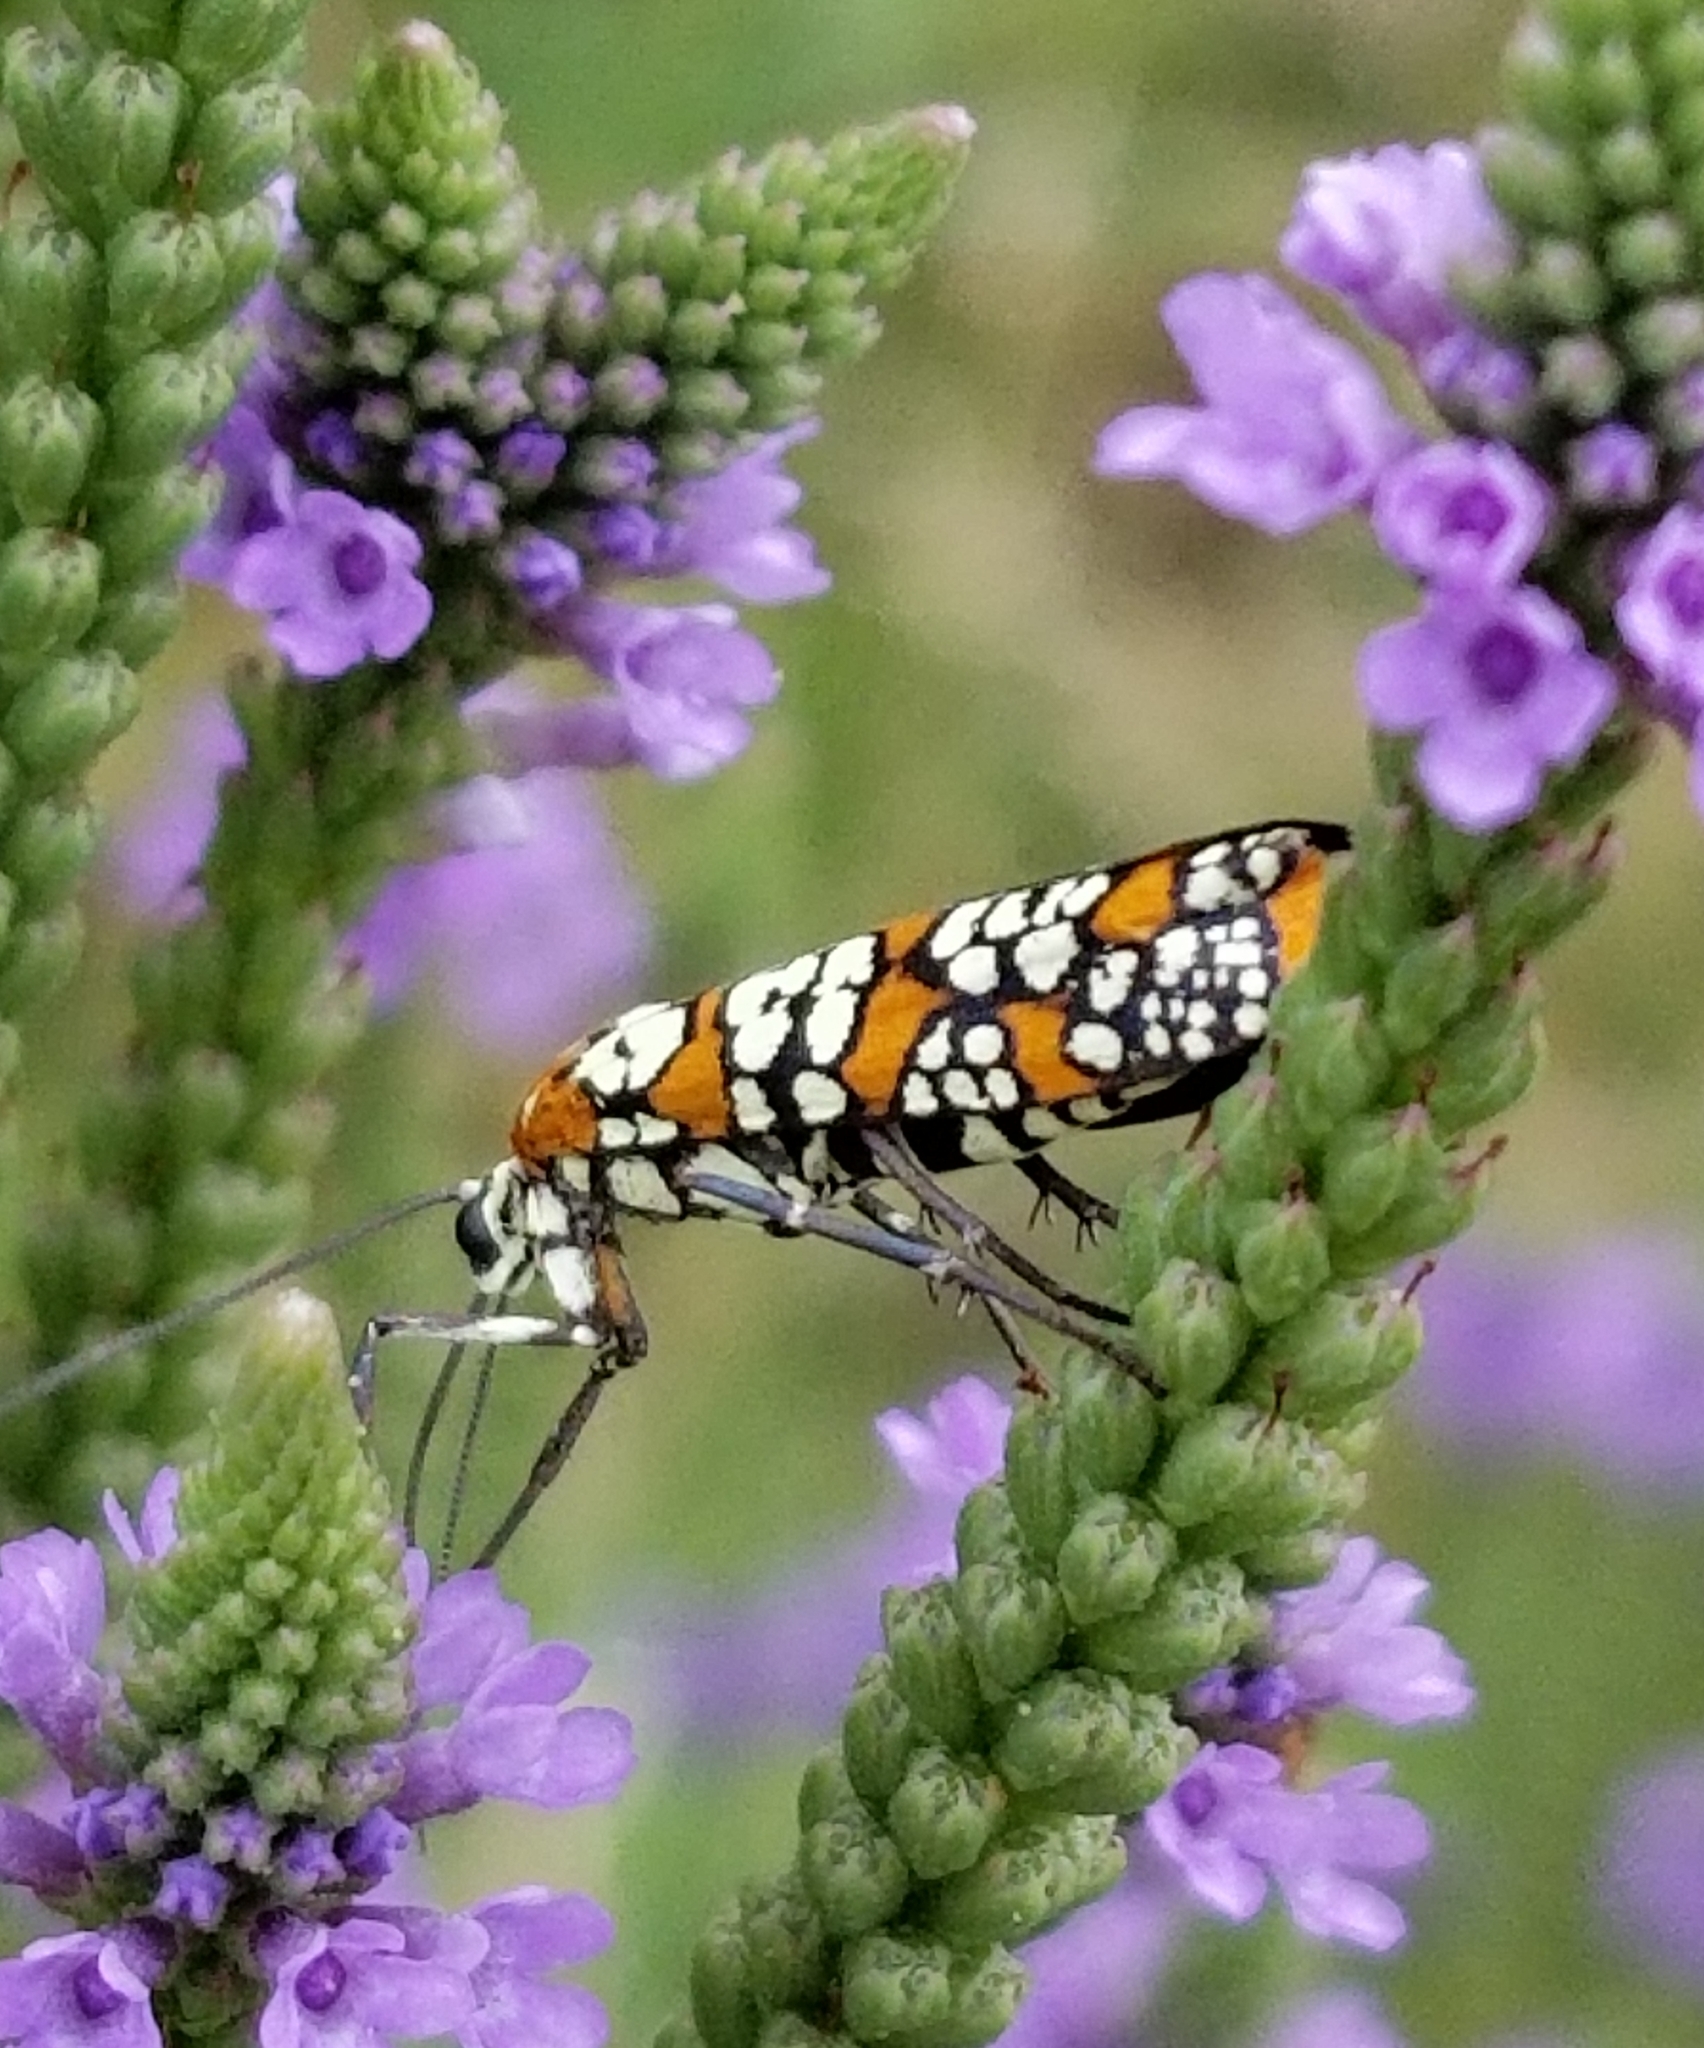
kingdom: Animalia
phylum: Arthropoda
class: Insecta
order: Lepidoptera
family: Attevidae
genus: Atteva
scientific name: Atteva punctella
